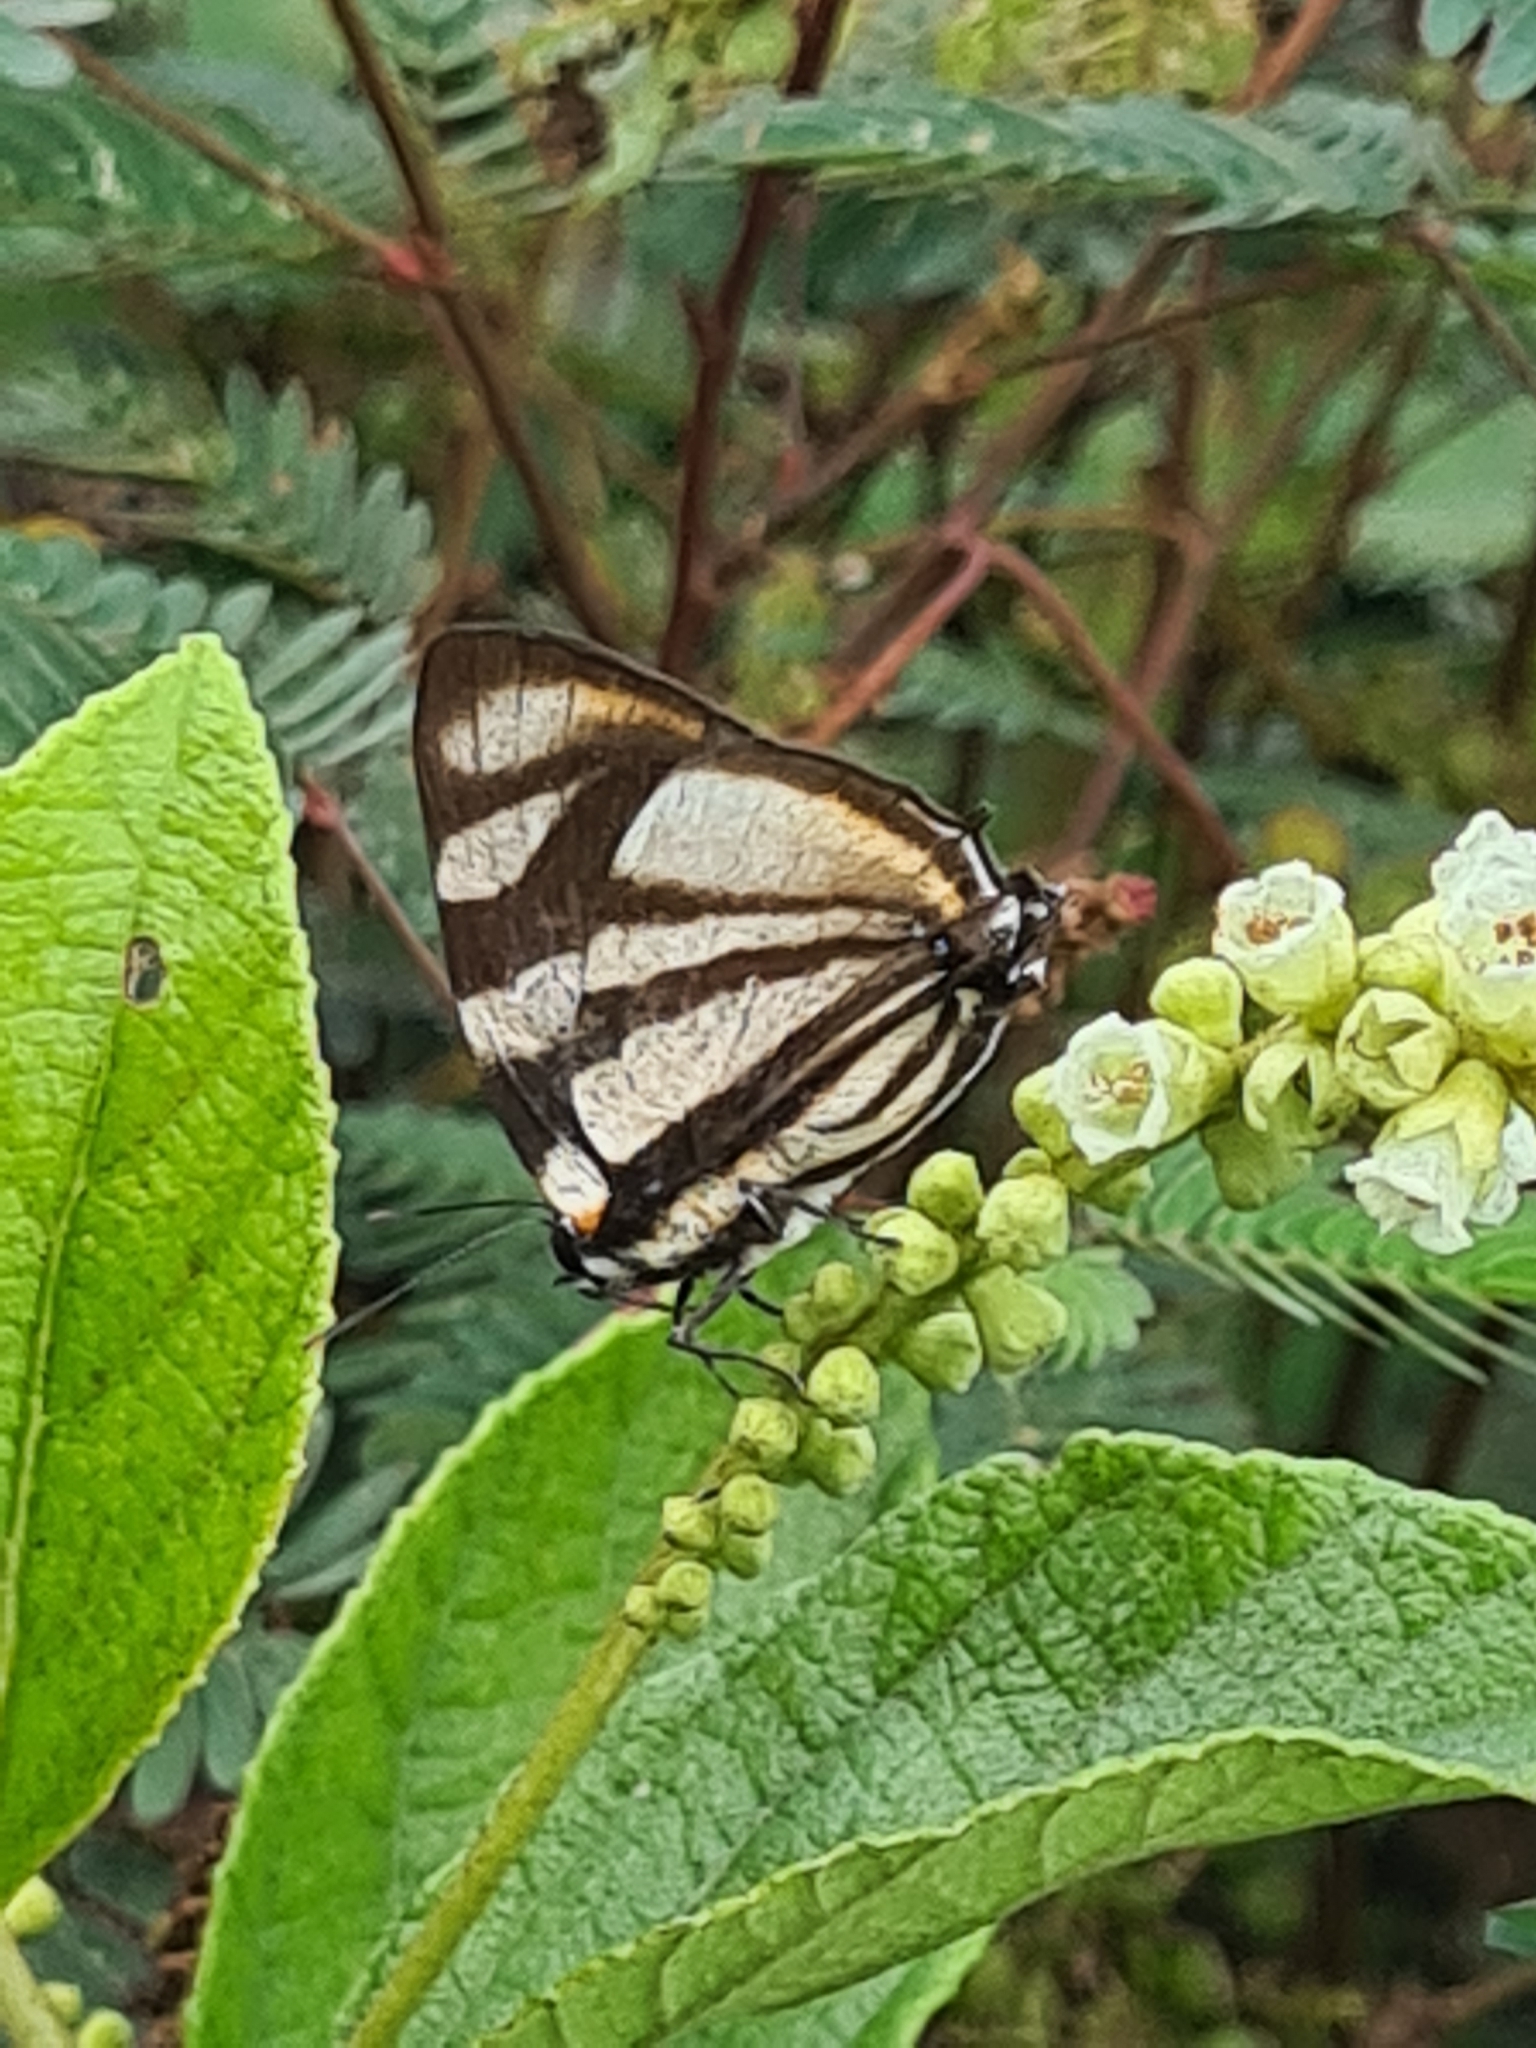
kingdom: Animalia
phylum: Arthropoda
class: Insecta
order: Lepidoptera
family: Lycaenidae
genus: Cycnus
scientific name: Cycnus phaleros
